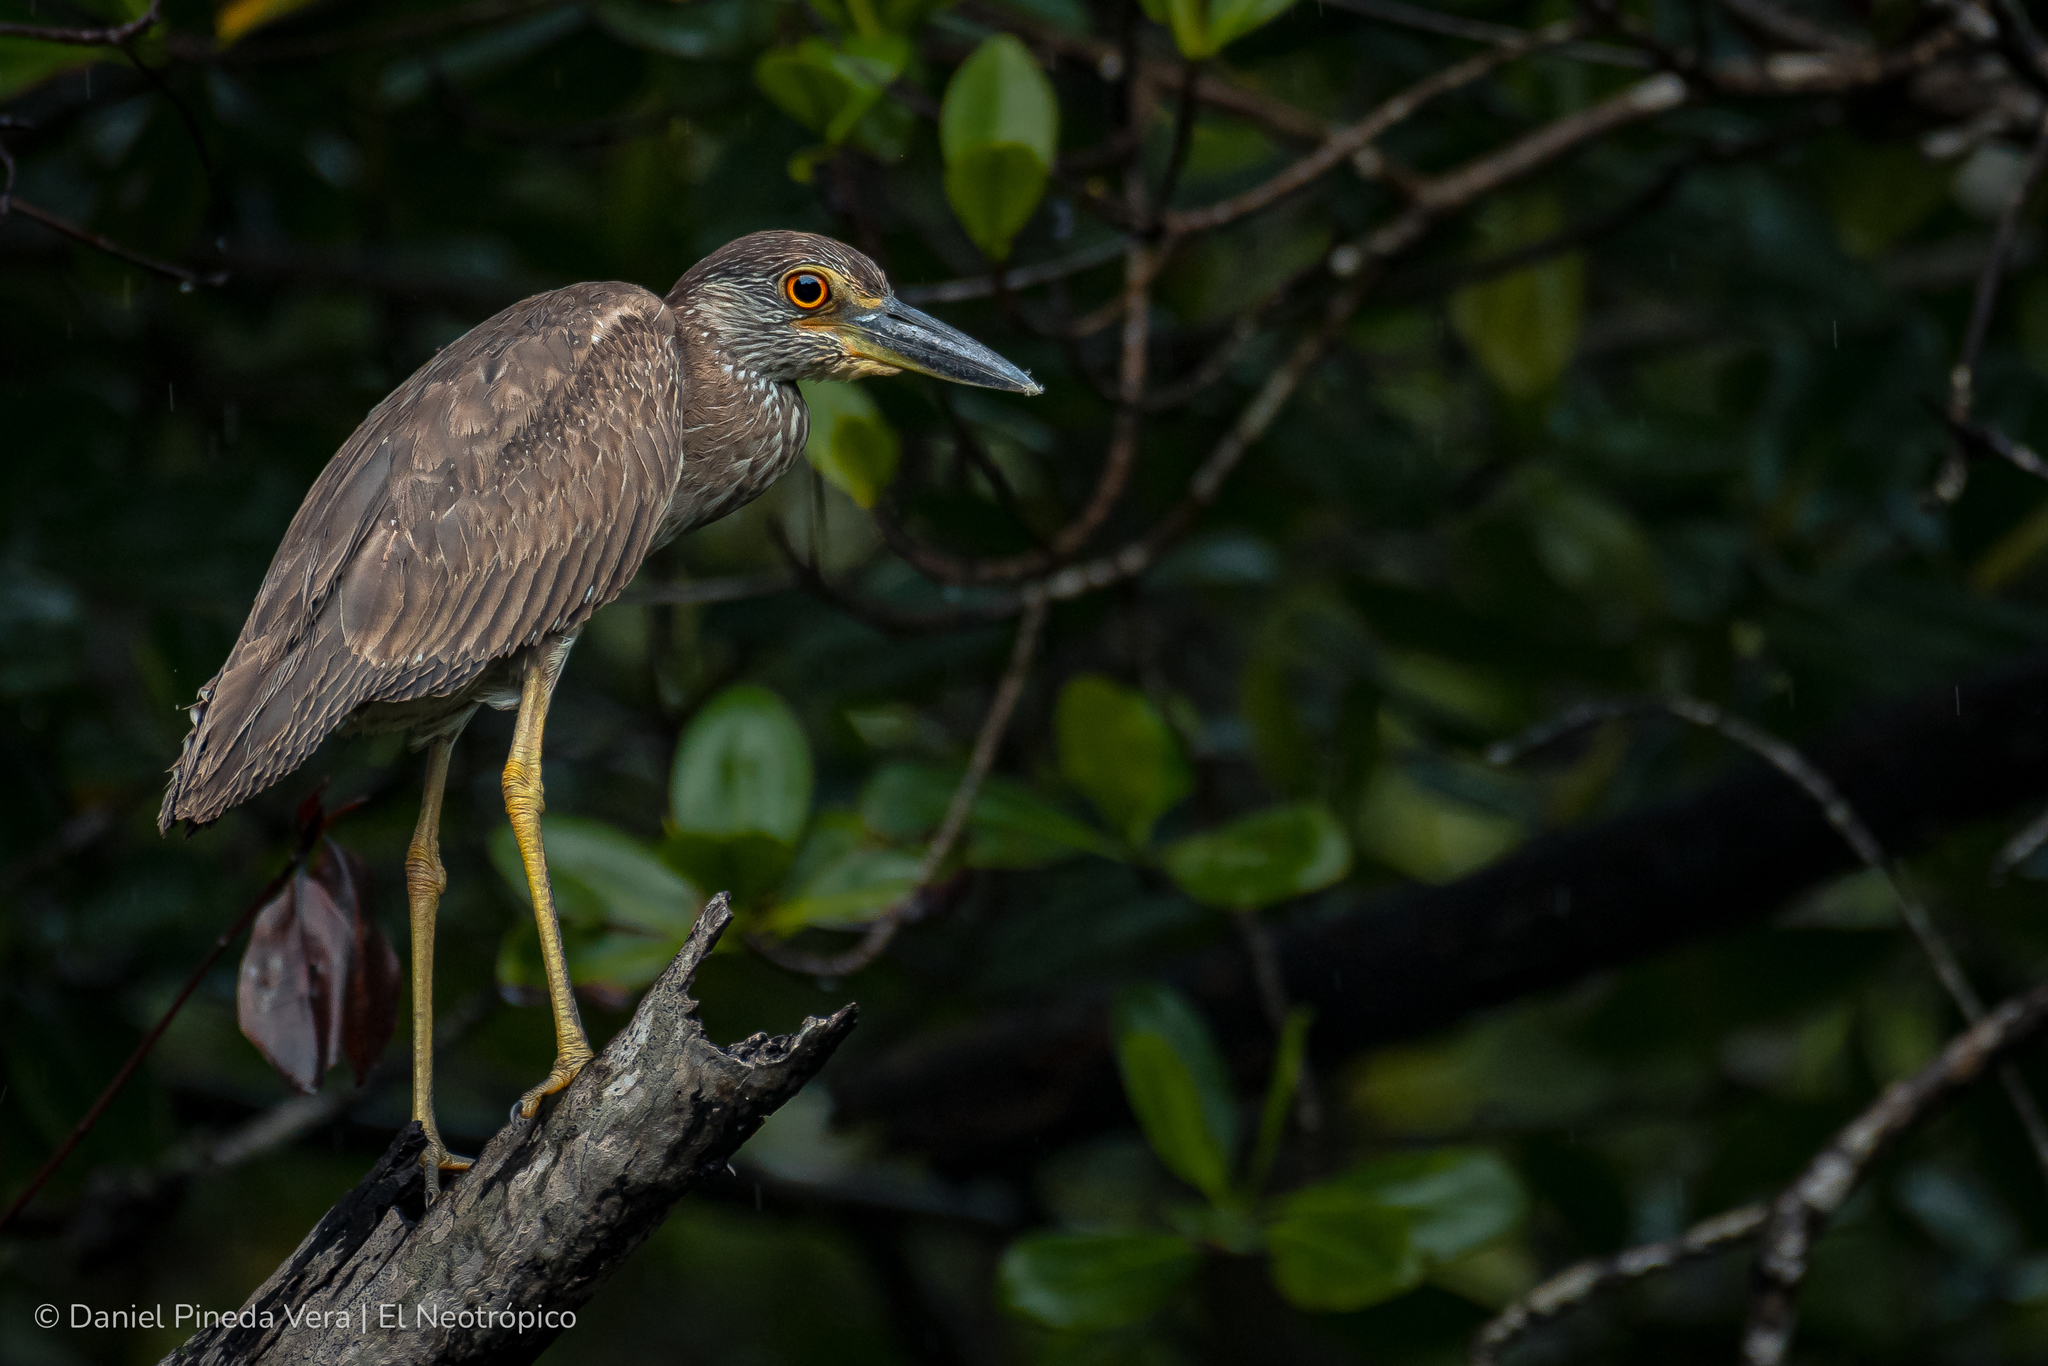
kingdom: Animalia
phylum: Chordata
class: Aves
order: Pelecaniformes
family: Ardeidae
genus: Nyctanassa
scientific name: Nyctanassa violacea
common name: Yellow-crowned night heron
